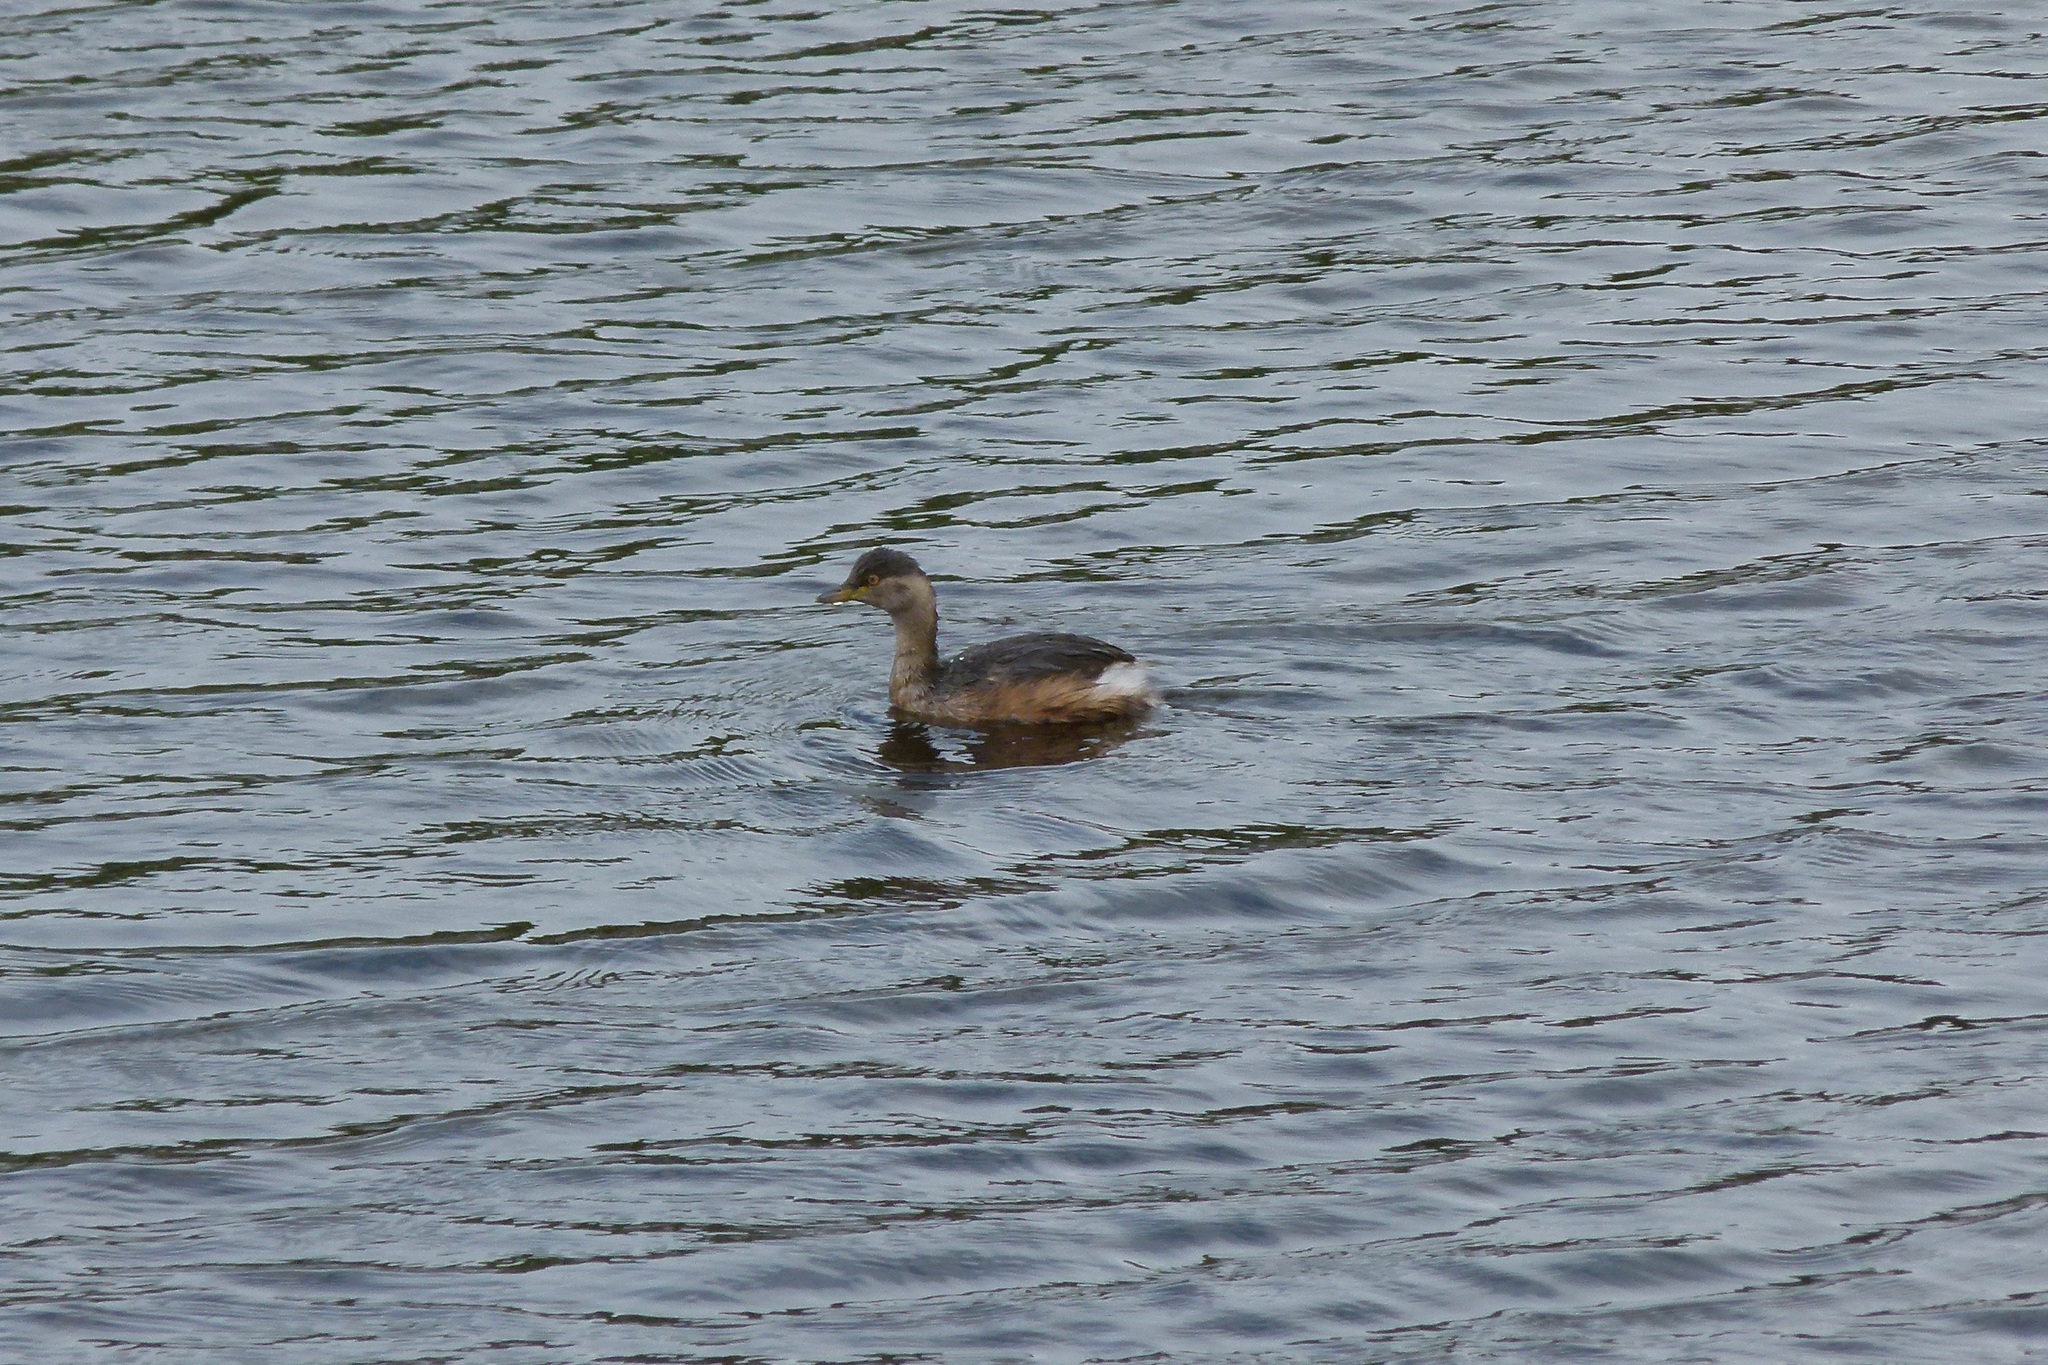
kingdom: Animalia
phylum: Chordata
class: Aves
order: Podicipediformes
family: Podicipedidae
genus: Tachybaptus
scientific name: Tachybaptus novaehollandiae
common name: Australasian grebe
